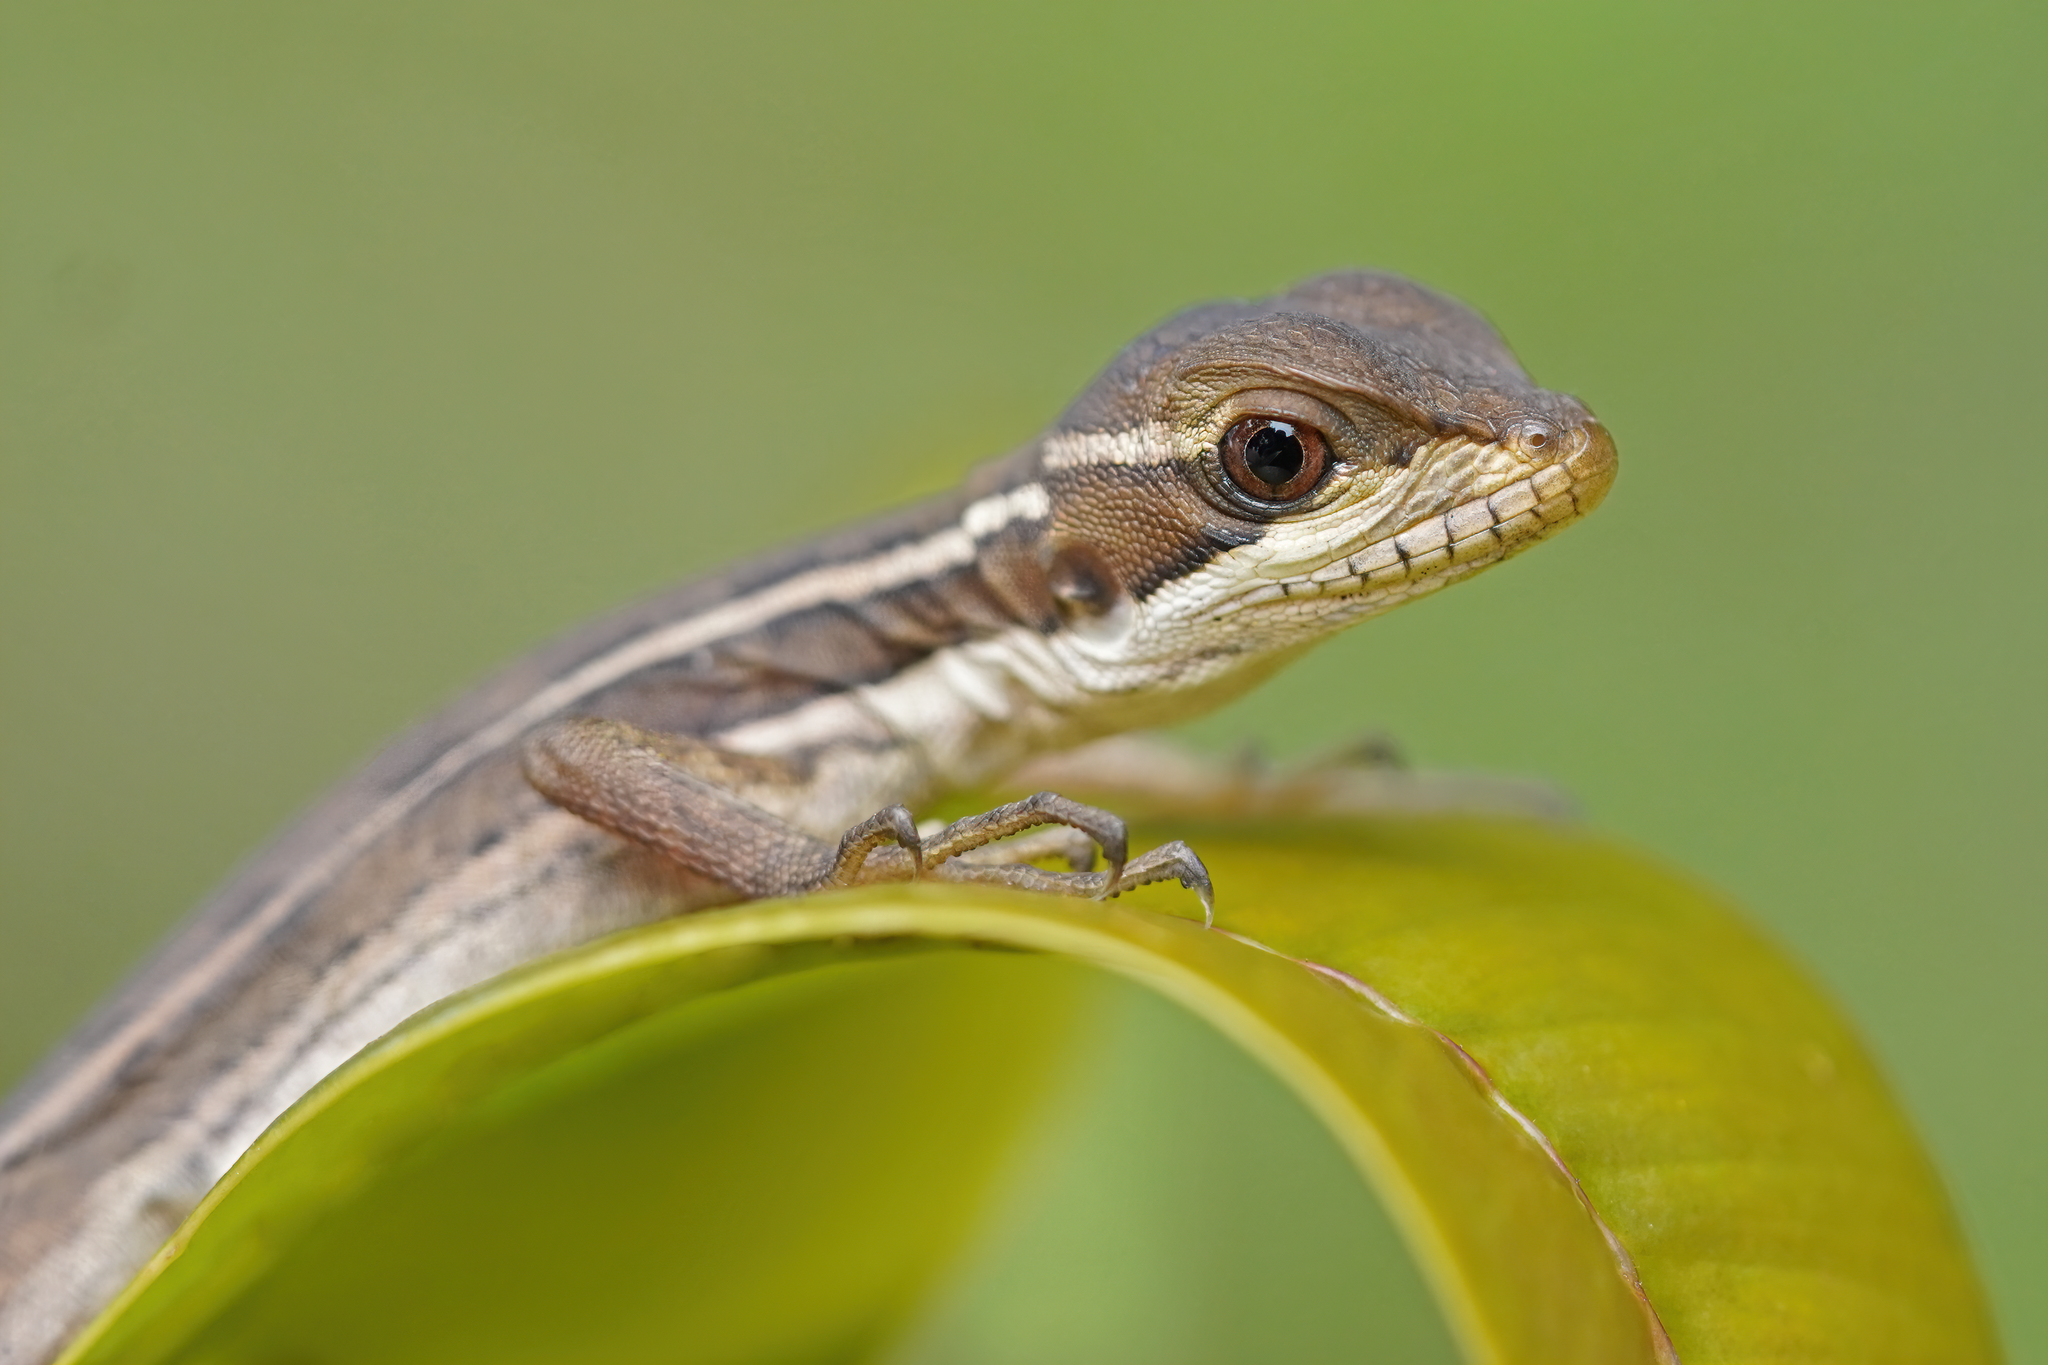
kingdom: Animalia
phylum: Chordata
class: Squamata
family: Corytophanidae
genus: Basiliscus
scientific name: Basiliscus vittatus
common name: Brown basilisk
